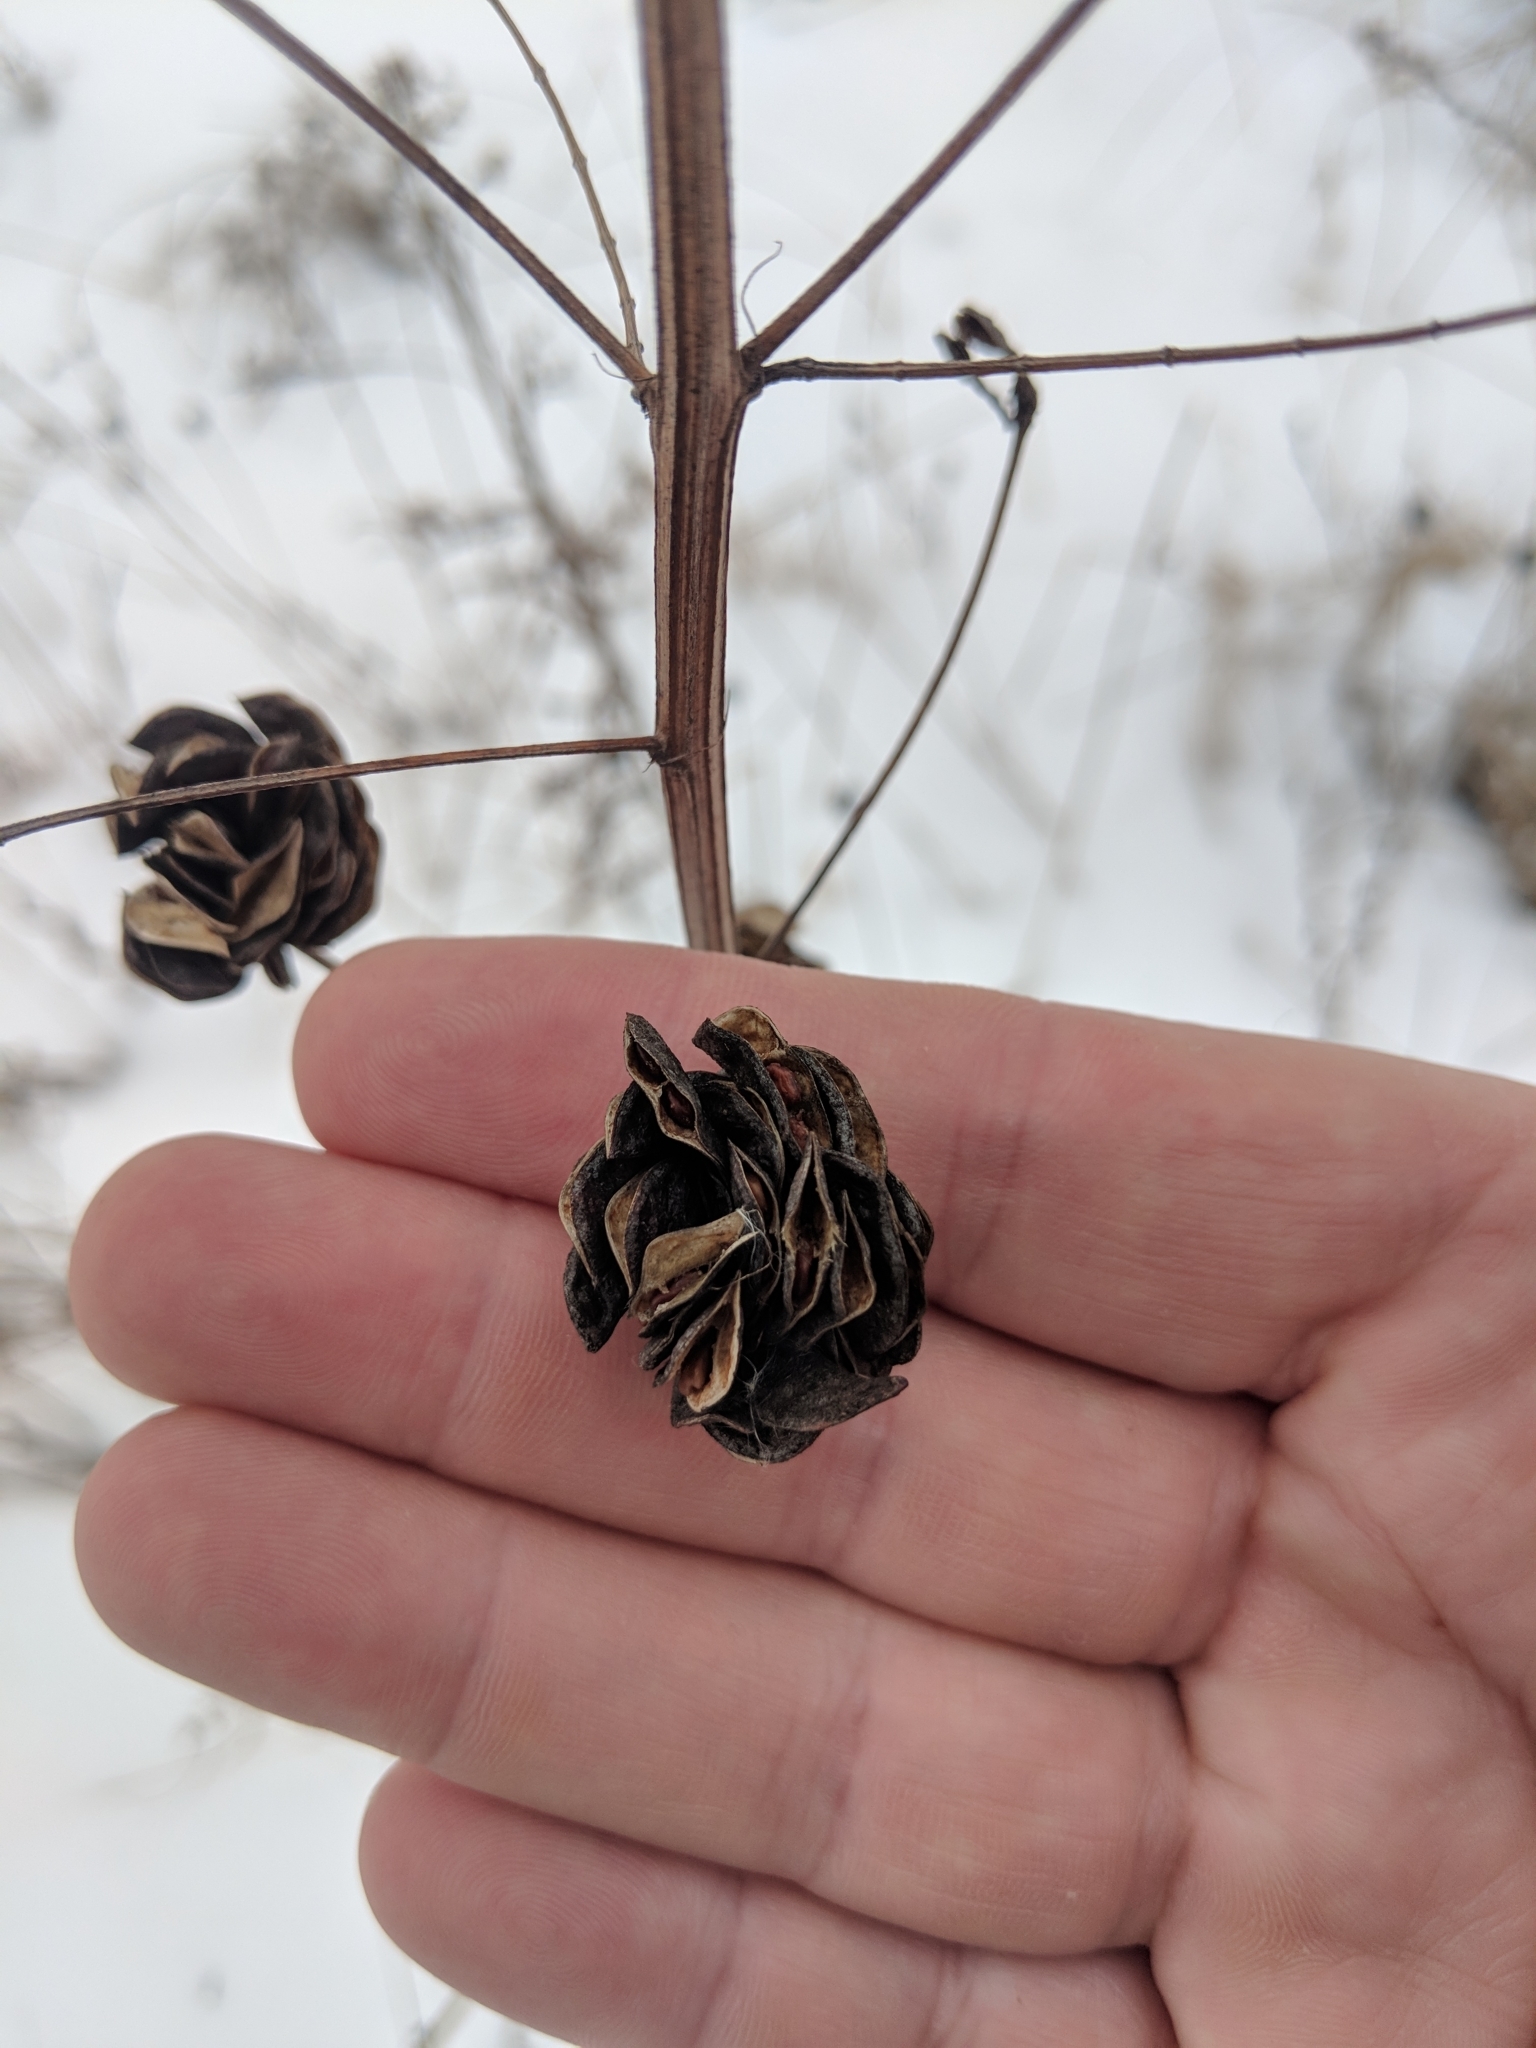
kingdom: Plantae
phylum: Tracheophyta
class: Magnoliopsida
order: Fabales
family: Fabaceae
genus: Desmanthus
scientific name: Desmanthus illinoensis
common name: Illinois bundle-flower
